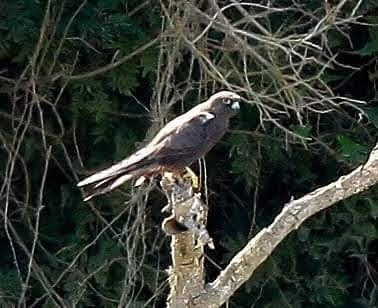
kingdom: Animalia
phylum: Chordata
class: Aves
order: Falconiformes
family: Falconidae
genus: Falco
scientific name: Falco eleonorae
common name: Eleonora's falcon
